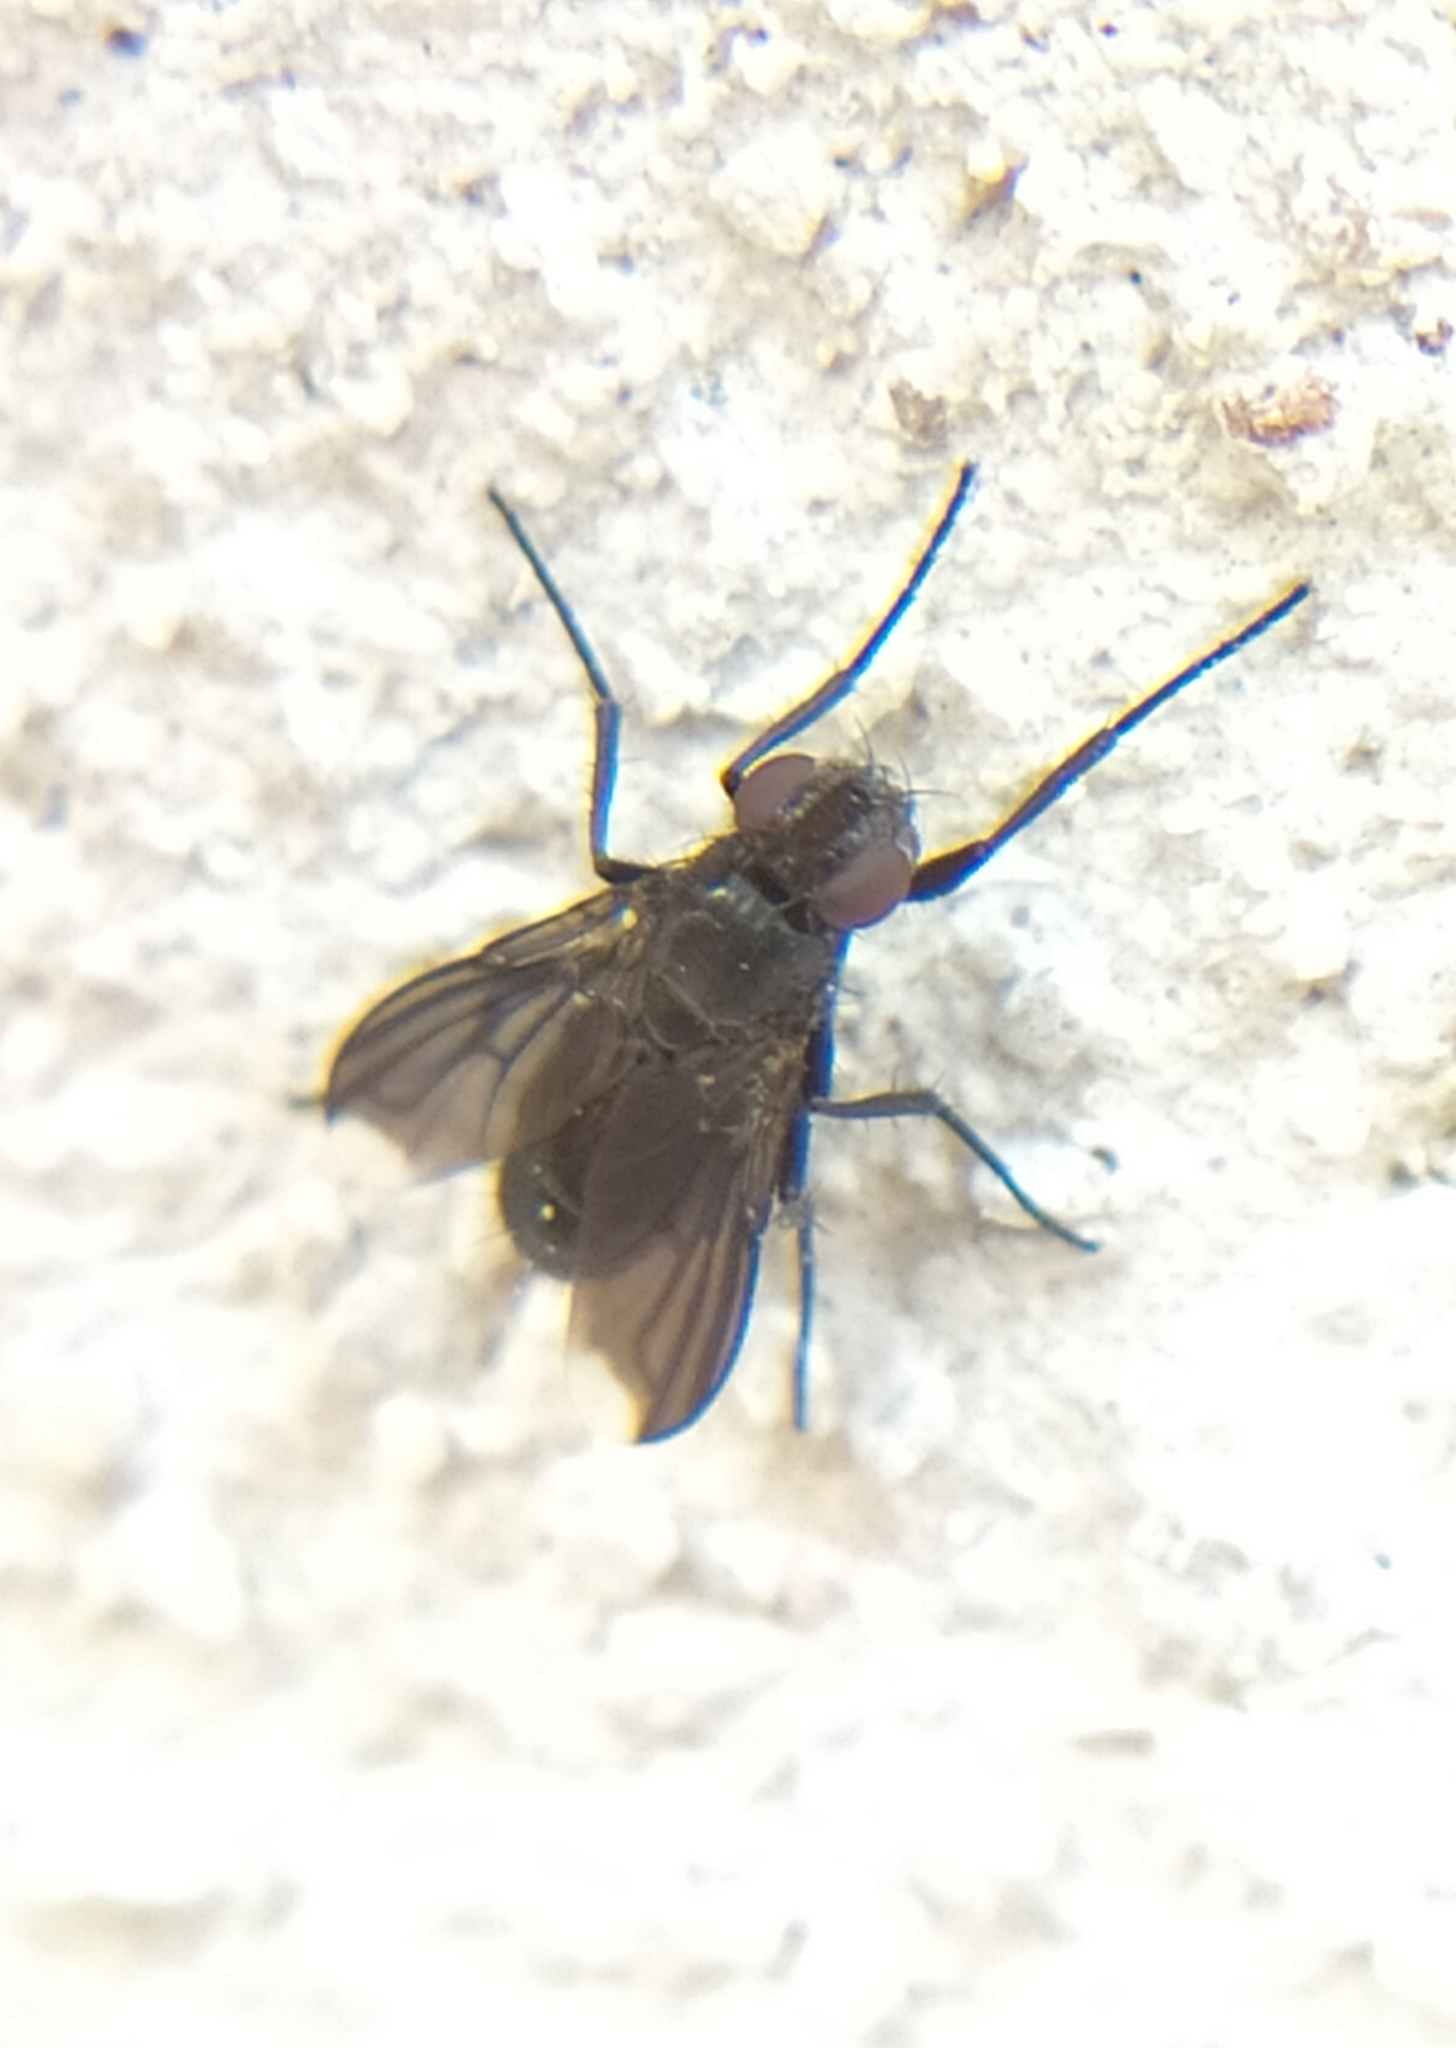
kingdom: Animalia
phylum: Arthropoda
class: Insecta
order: Diptera
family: Calliphoridae
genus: Melanophora
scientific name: Melanophora roralis
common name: Smoky-winged woodlouse-fly
